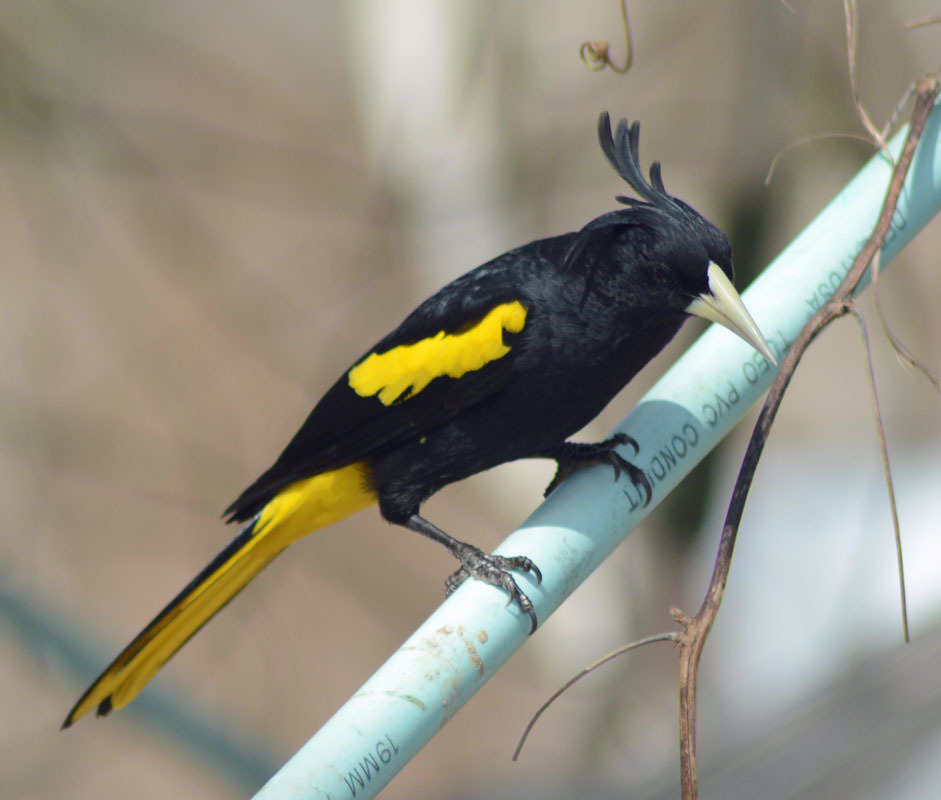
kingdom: Animalia
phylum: Chordata
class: Aves
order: Passeriformes
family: Icteridae
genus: Cacicus
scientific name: Cacicus melanicterus
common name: Yellow-winged cacique
